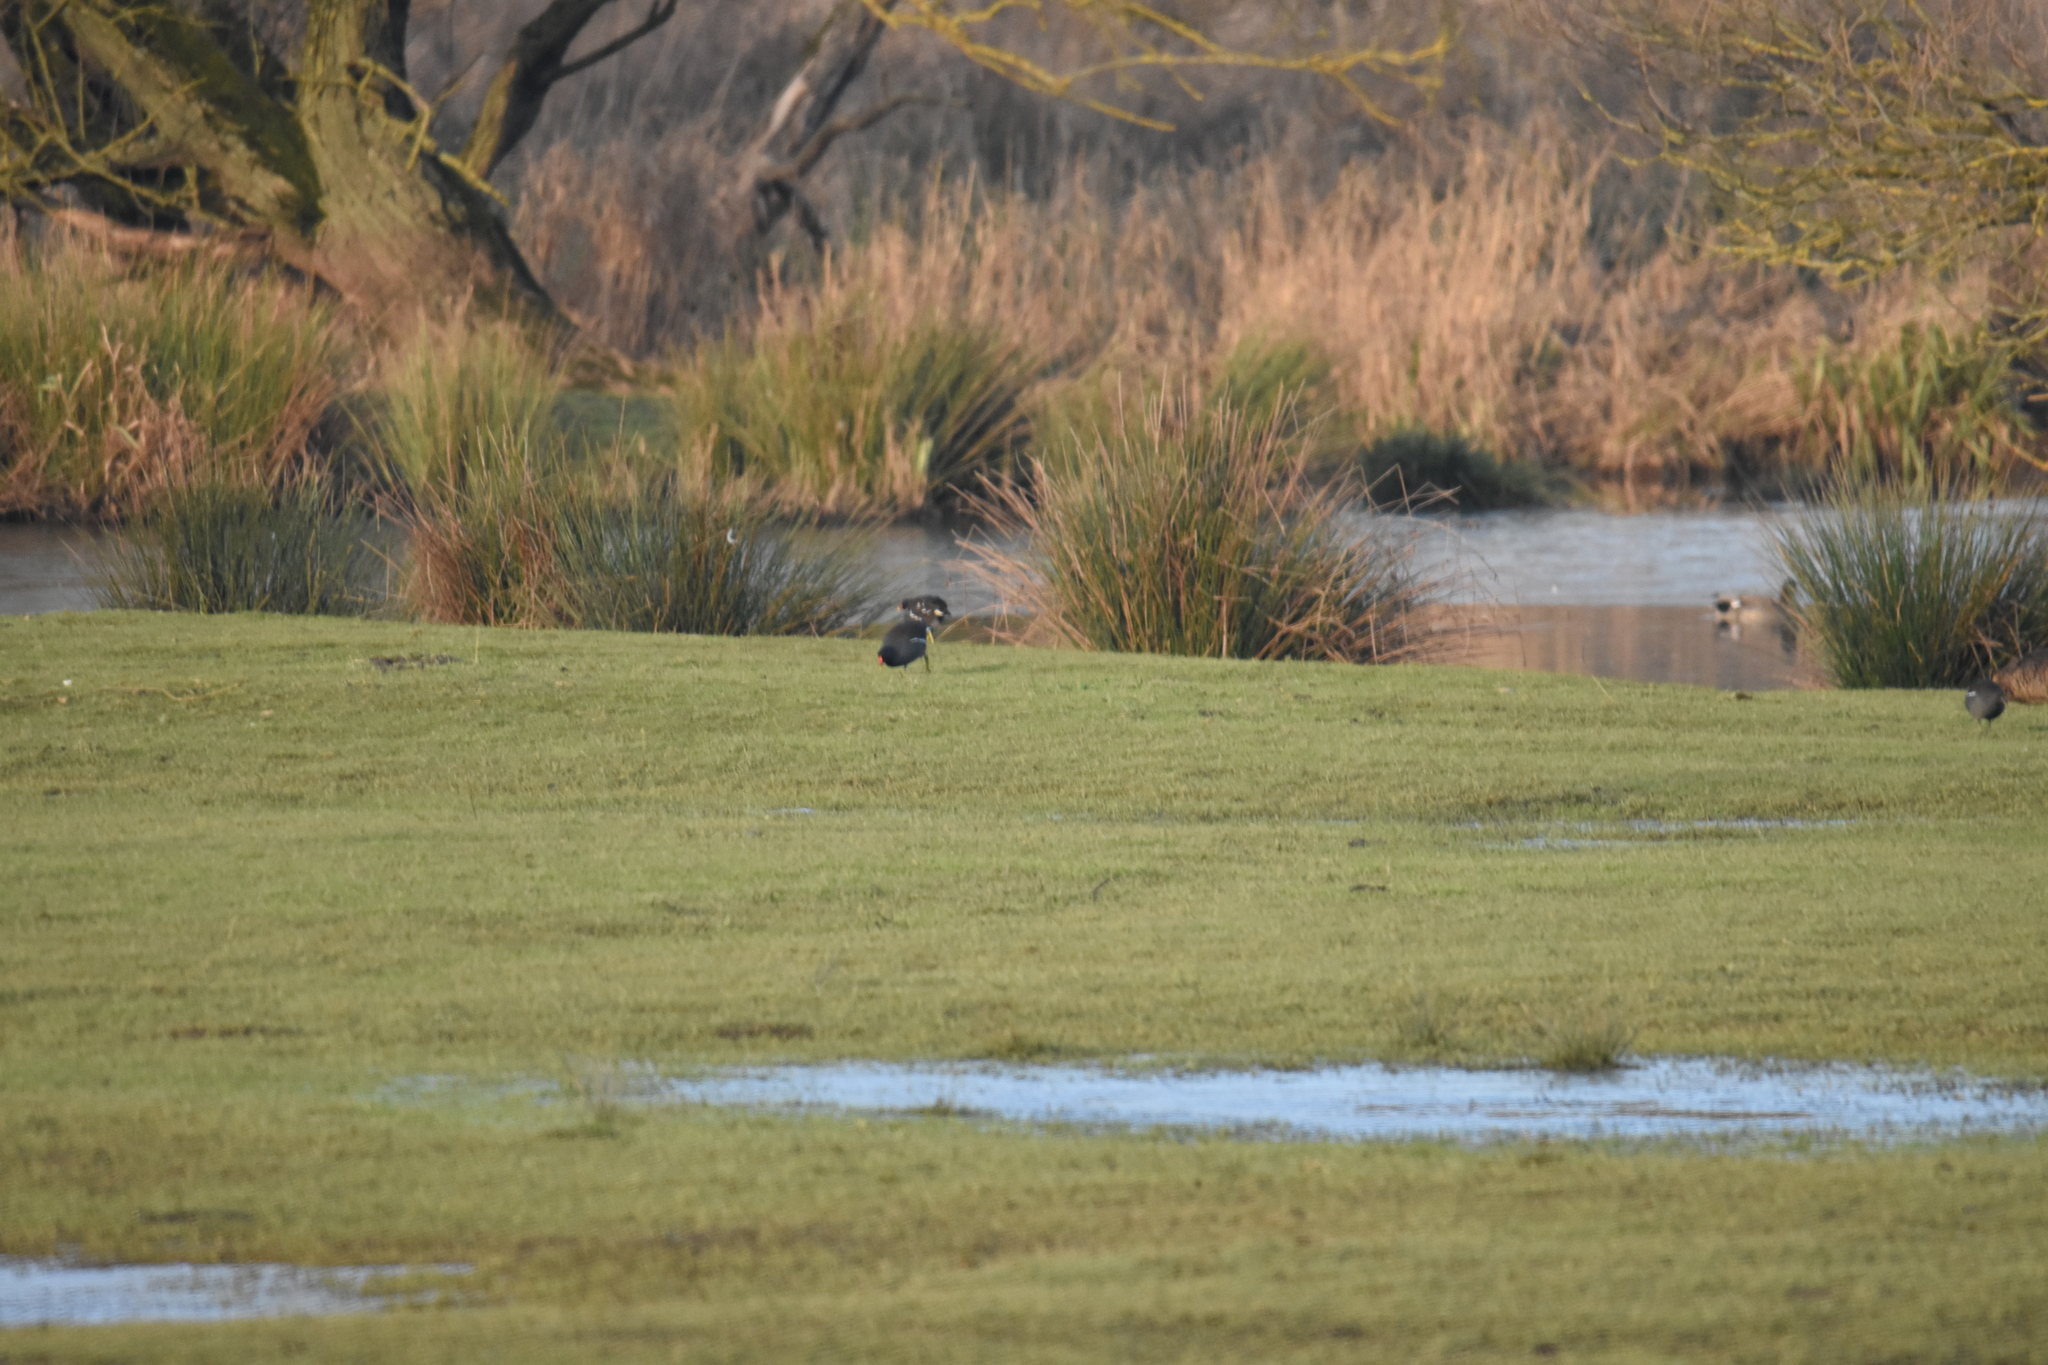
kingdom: Animalia
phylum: Chordata
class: Aves
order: Gruiformes
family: Rallidae
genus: Gallinula
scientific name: Gallinula chloropus
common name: Common moorhen
